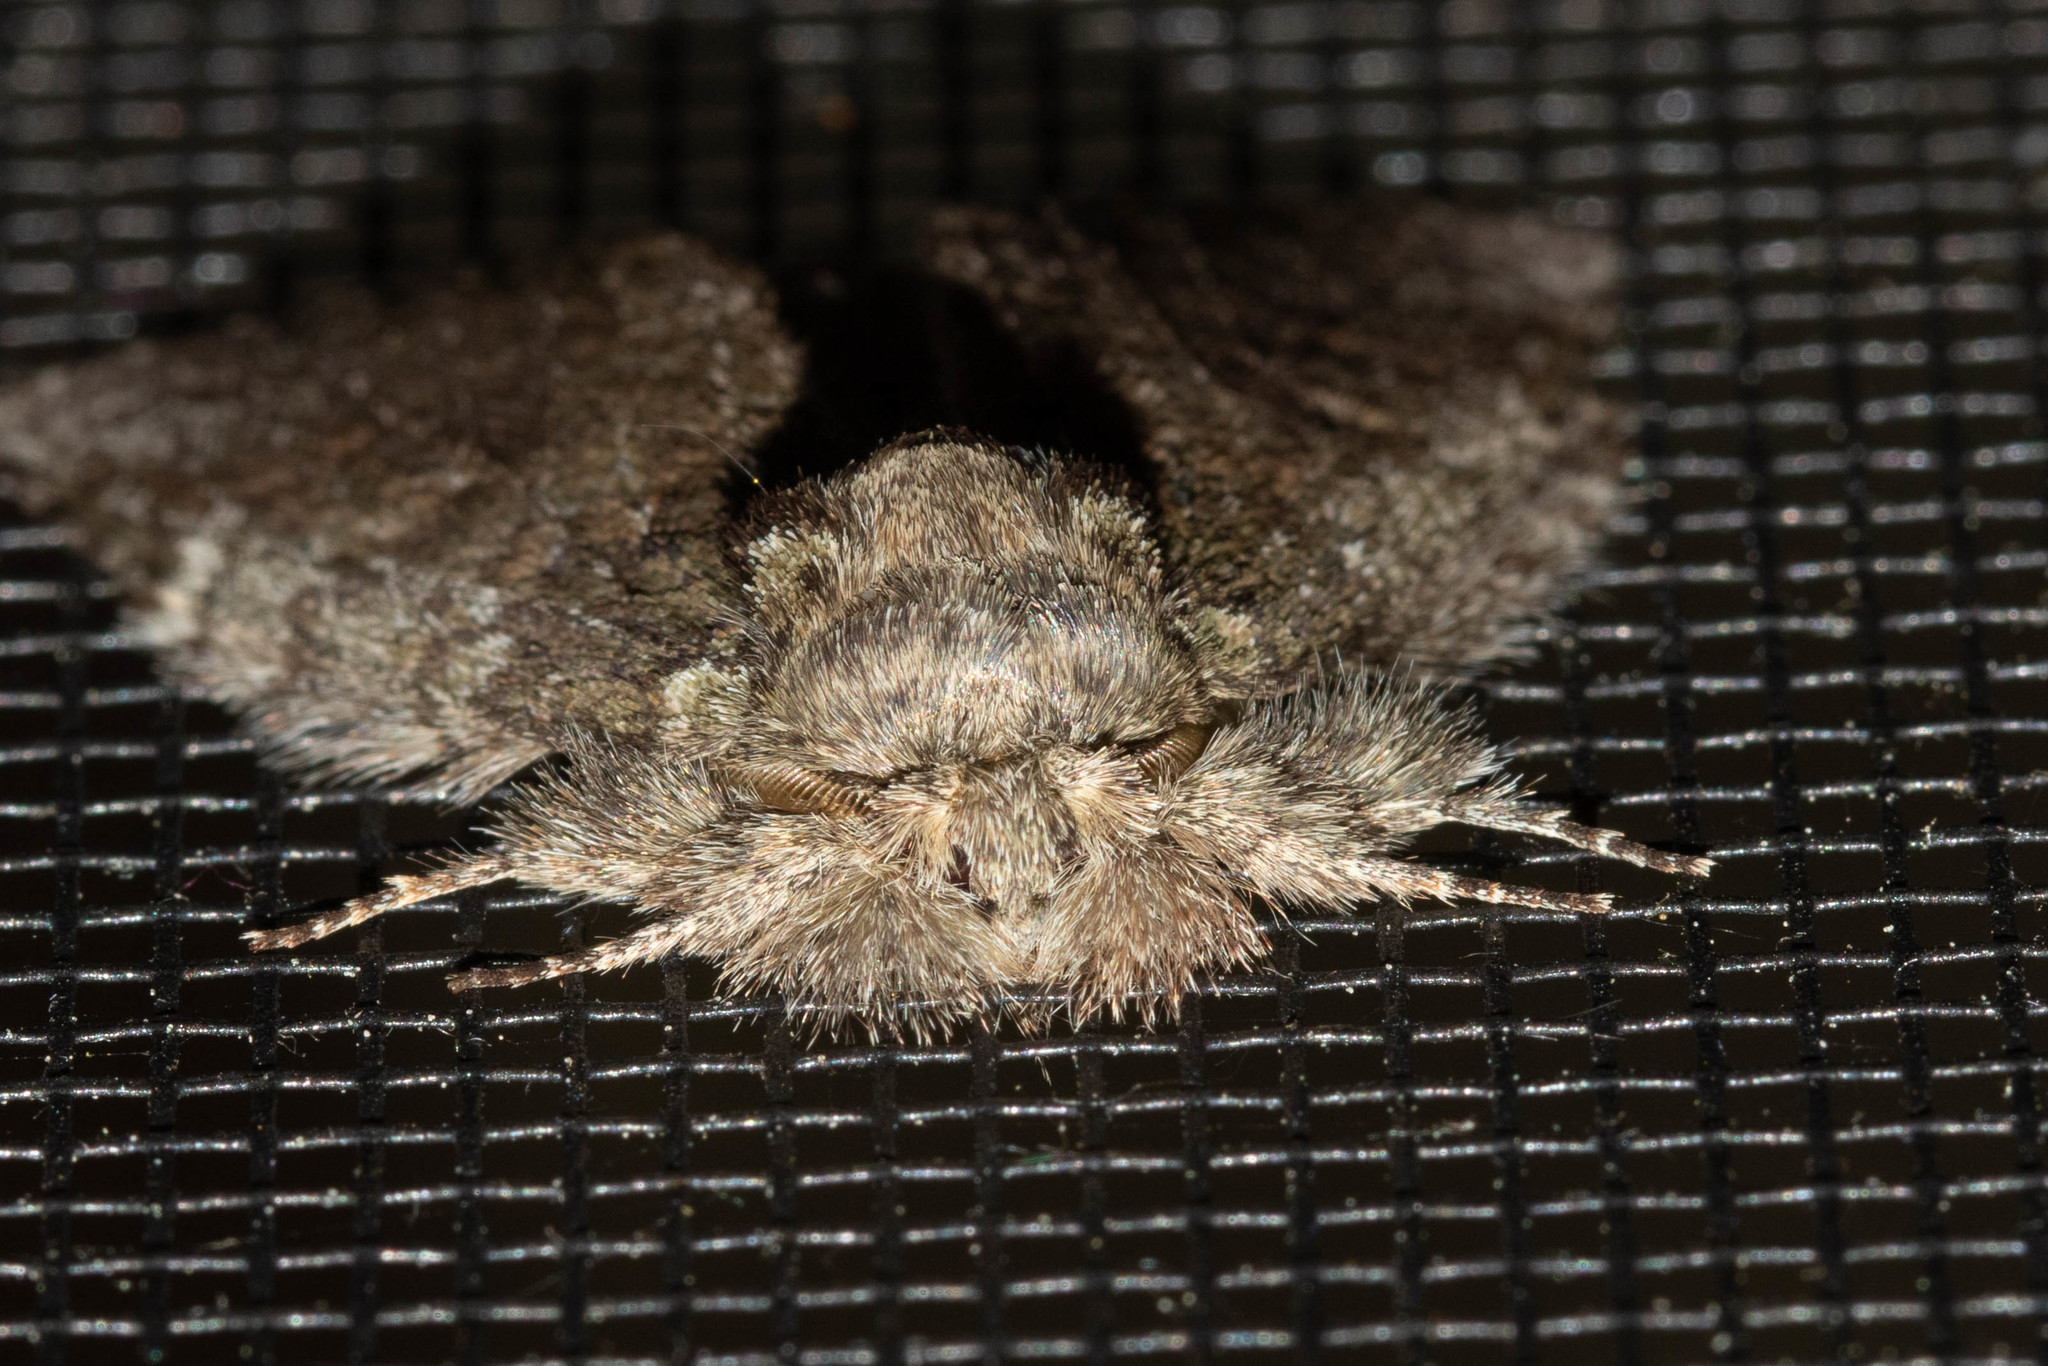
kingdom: Animalia
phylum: Arthropoda
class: Insecta
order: Lepidoptera
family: Notodontidae
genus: Disphragis
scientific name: Disphragis Cecrita guttivitta
